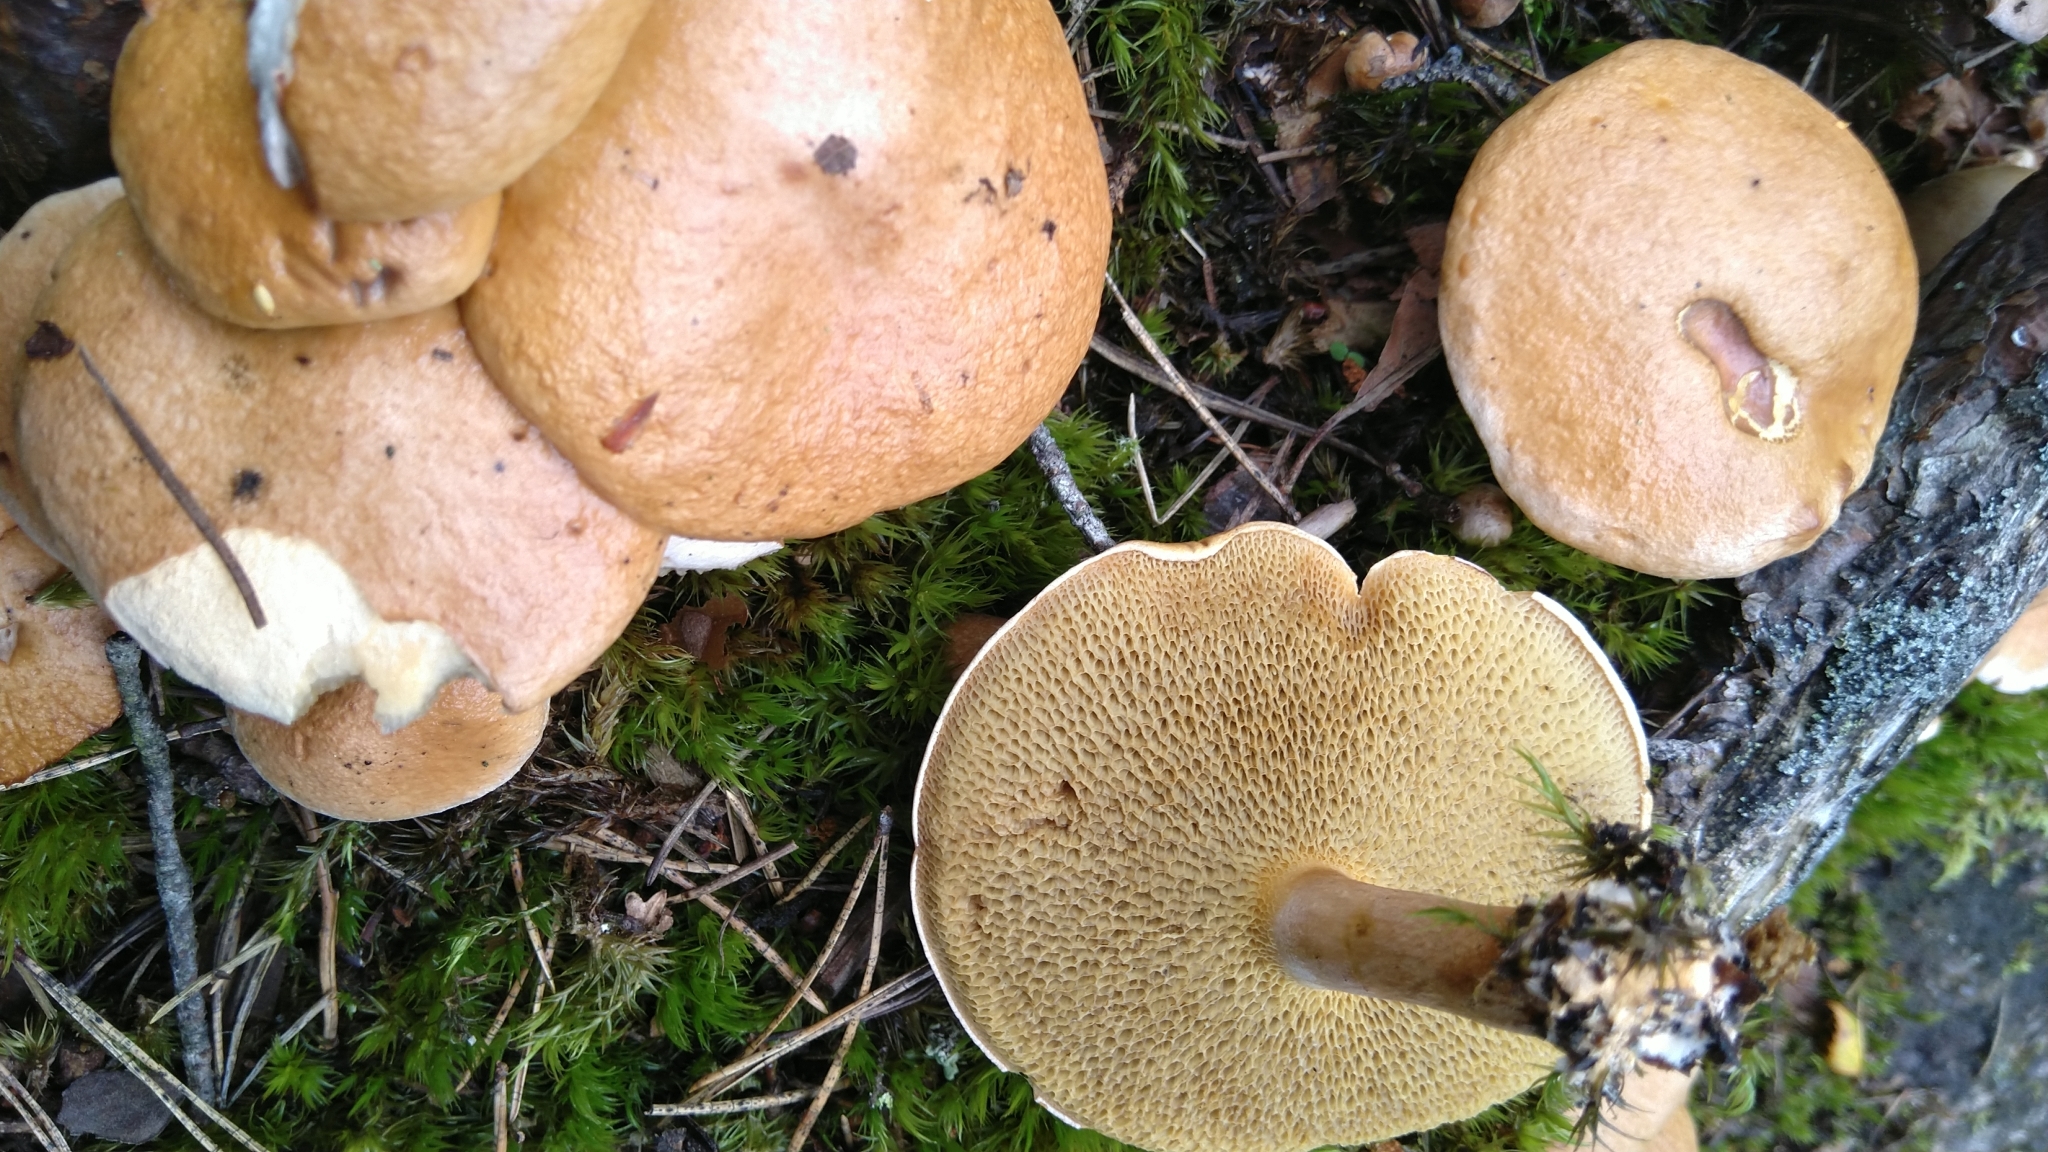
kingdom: Fungi
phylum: Basidiomycota
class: Agaricomycetes
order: Boletales
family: Suillaceae
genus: Suillus
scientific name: Suillus bovinus
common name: Bovine bolete
